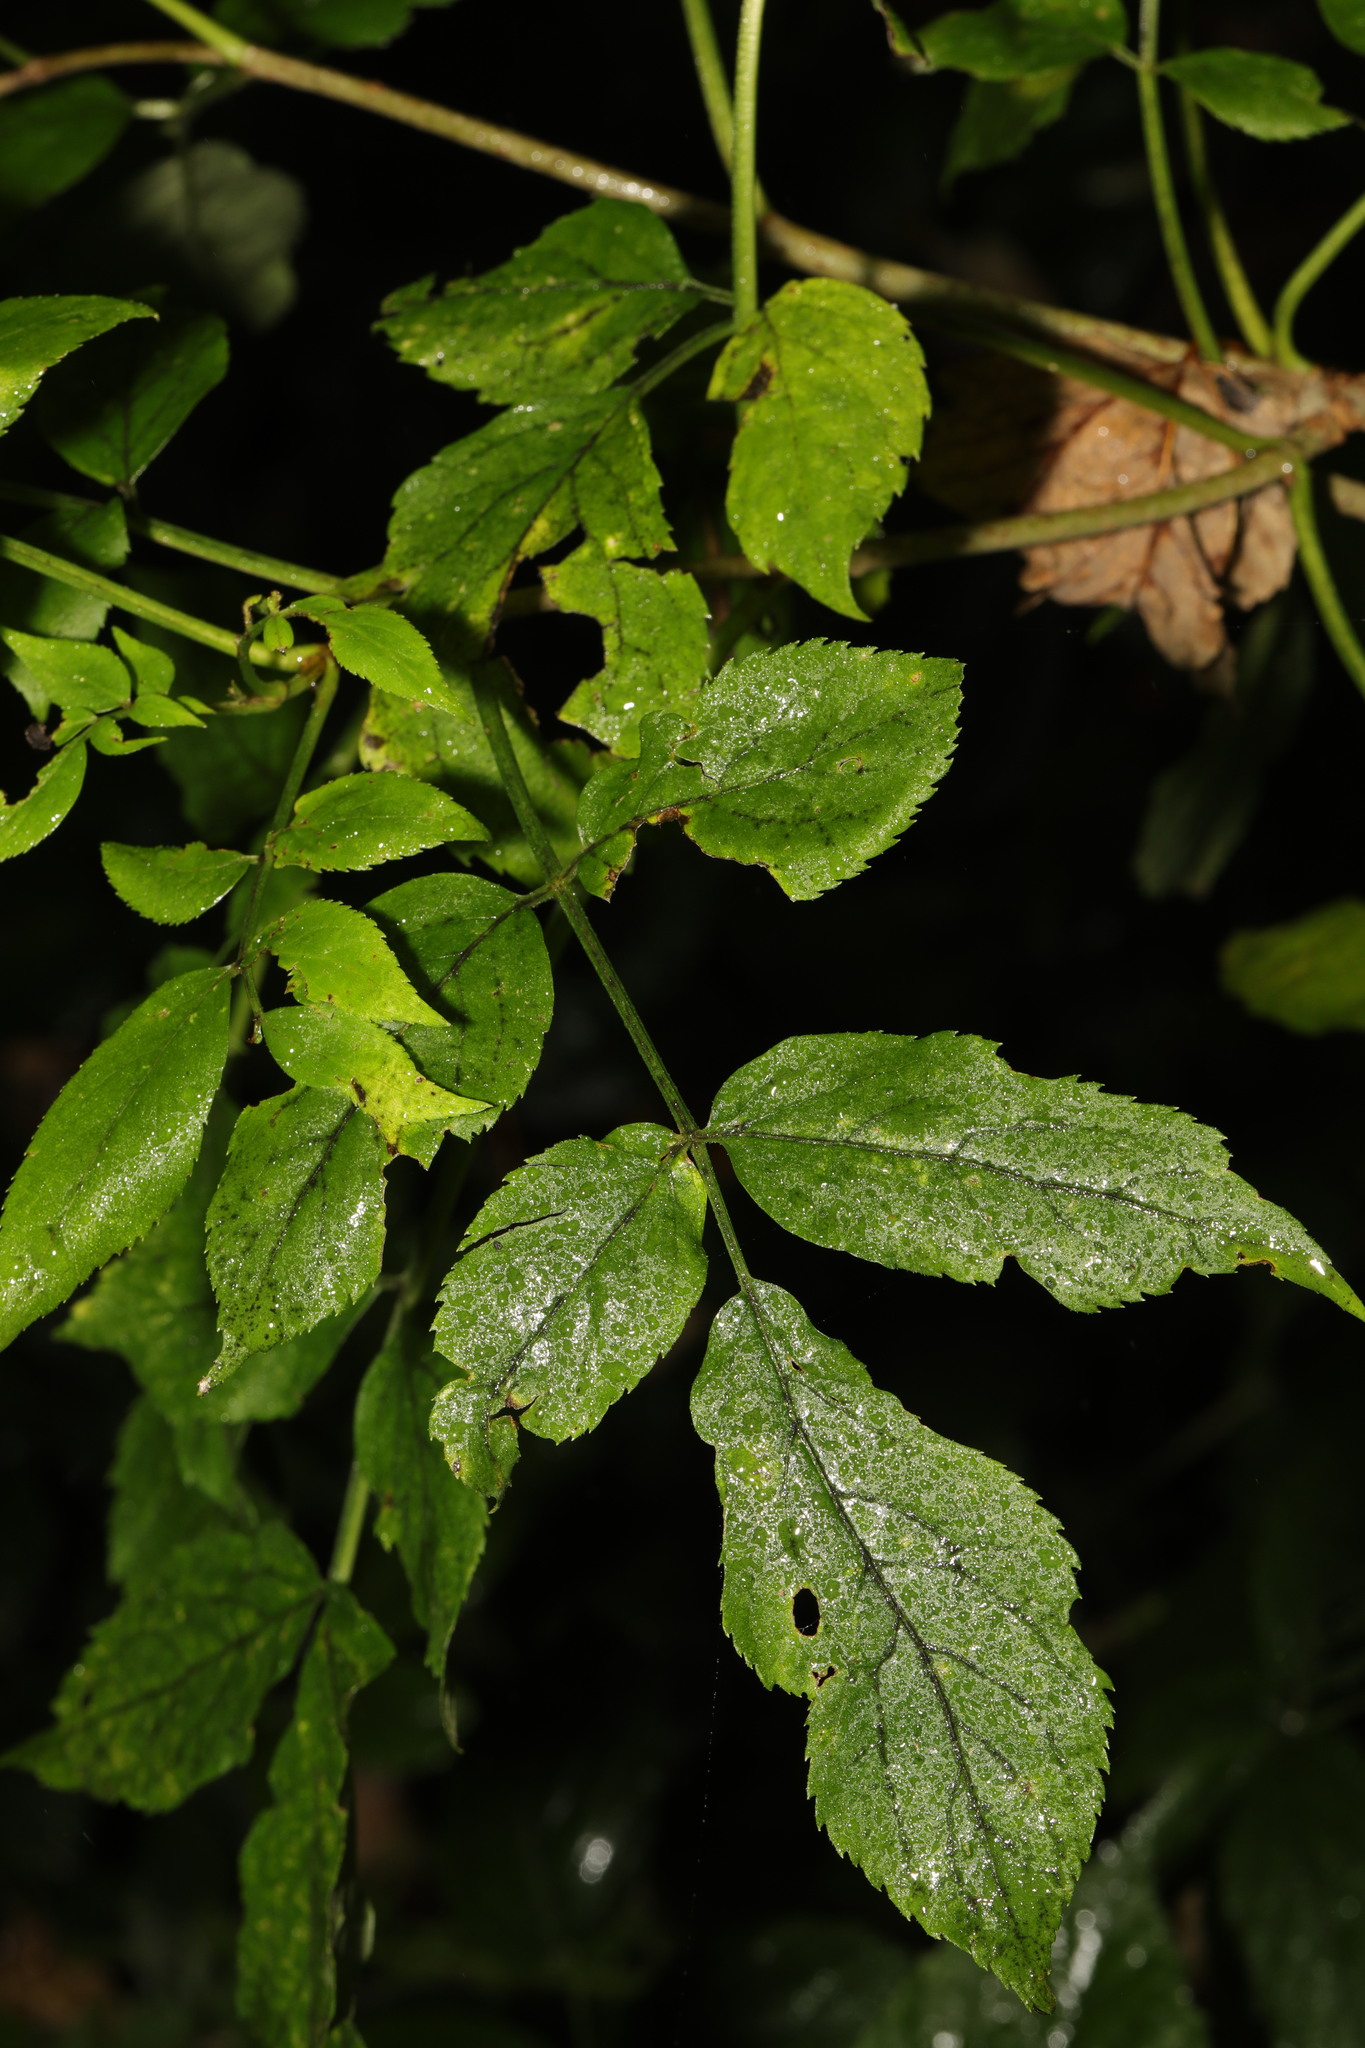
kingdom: Plantae
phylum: Tracheophyta
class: Magnoliopsida
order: Dipsacales
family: Viburnaceae
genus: Sambucus
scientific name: Sambucus nigra
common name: Elder
